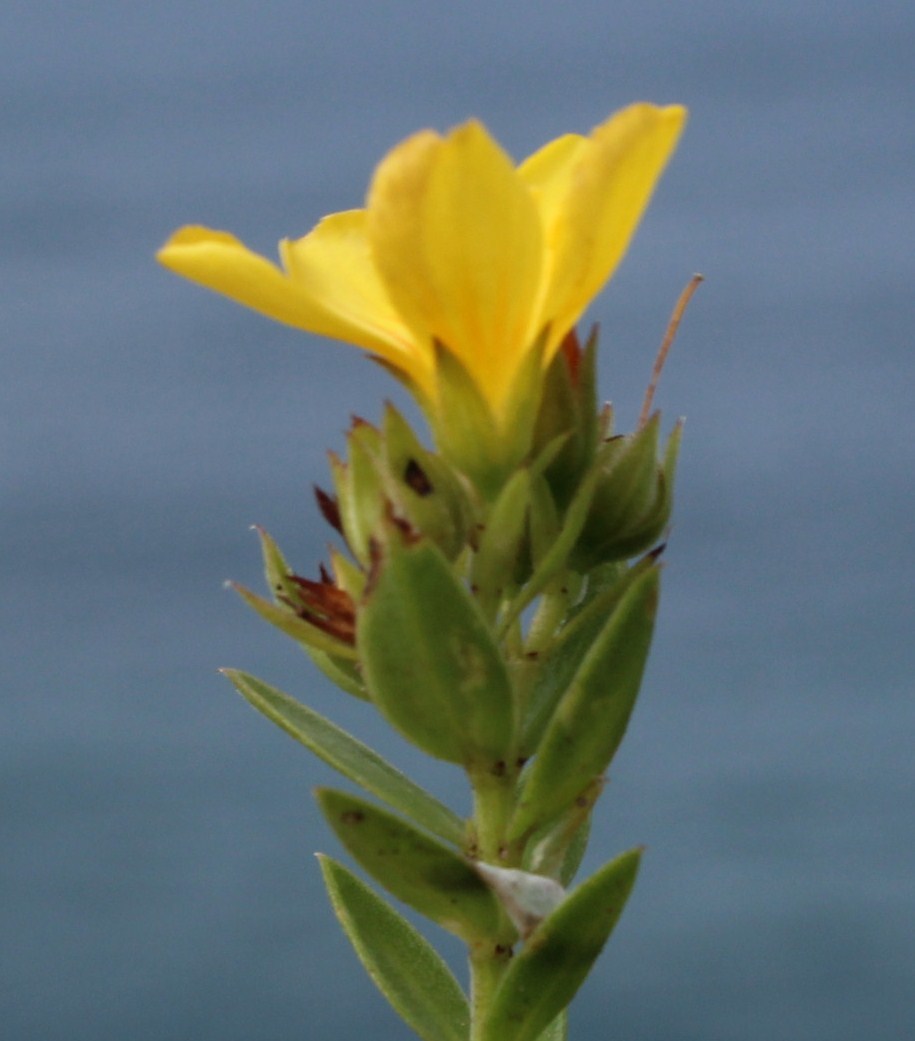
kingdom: Plantae
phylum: Tracheophyta
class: Magnoliopsida
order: Malpighiales
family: Linaceae
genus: Linum
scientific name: Linum aethiopicum
